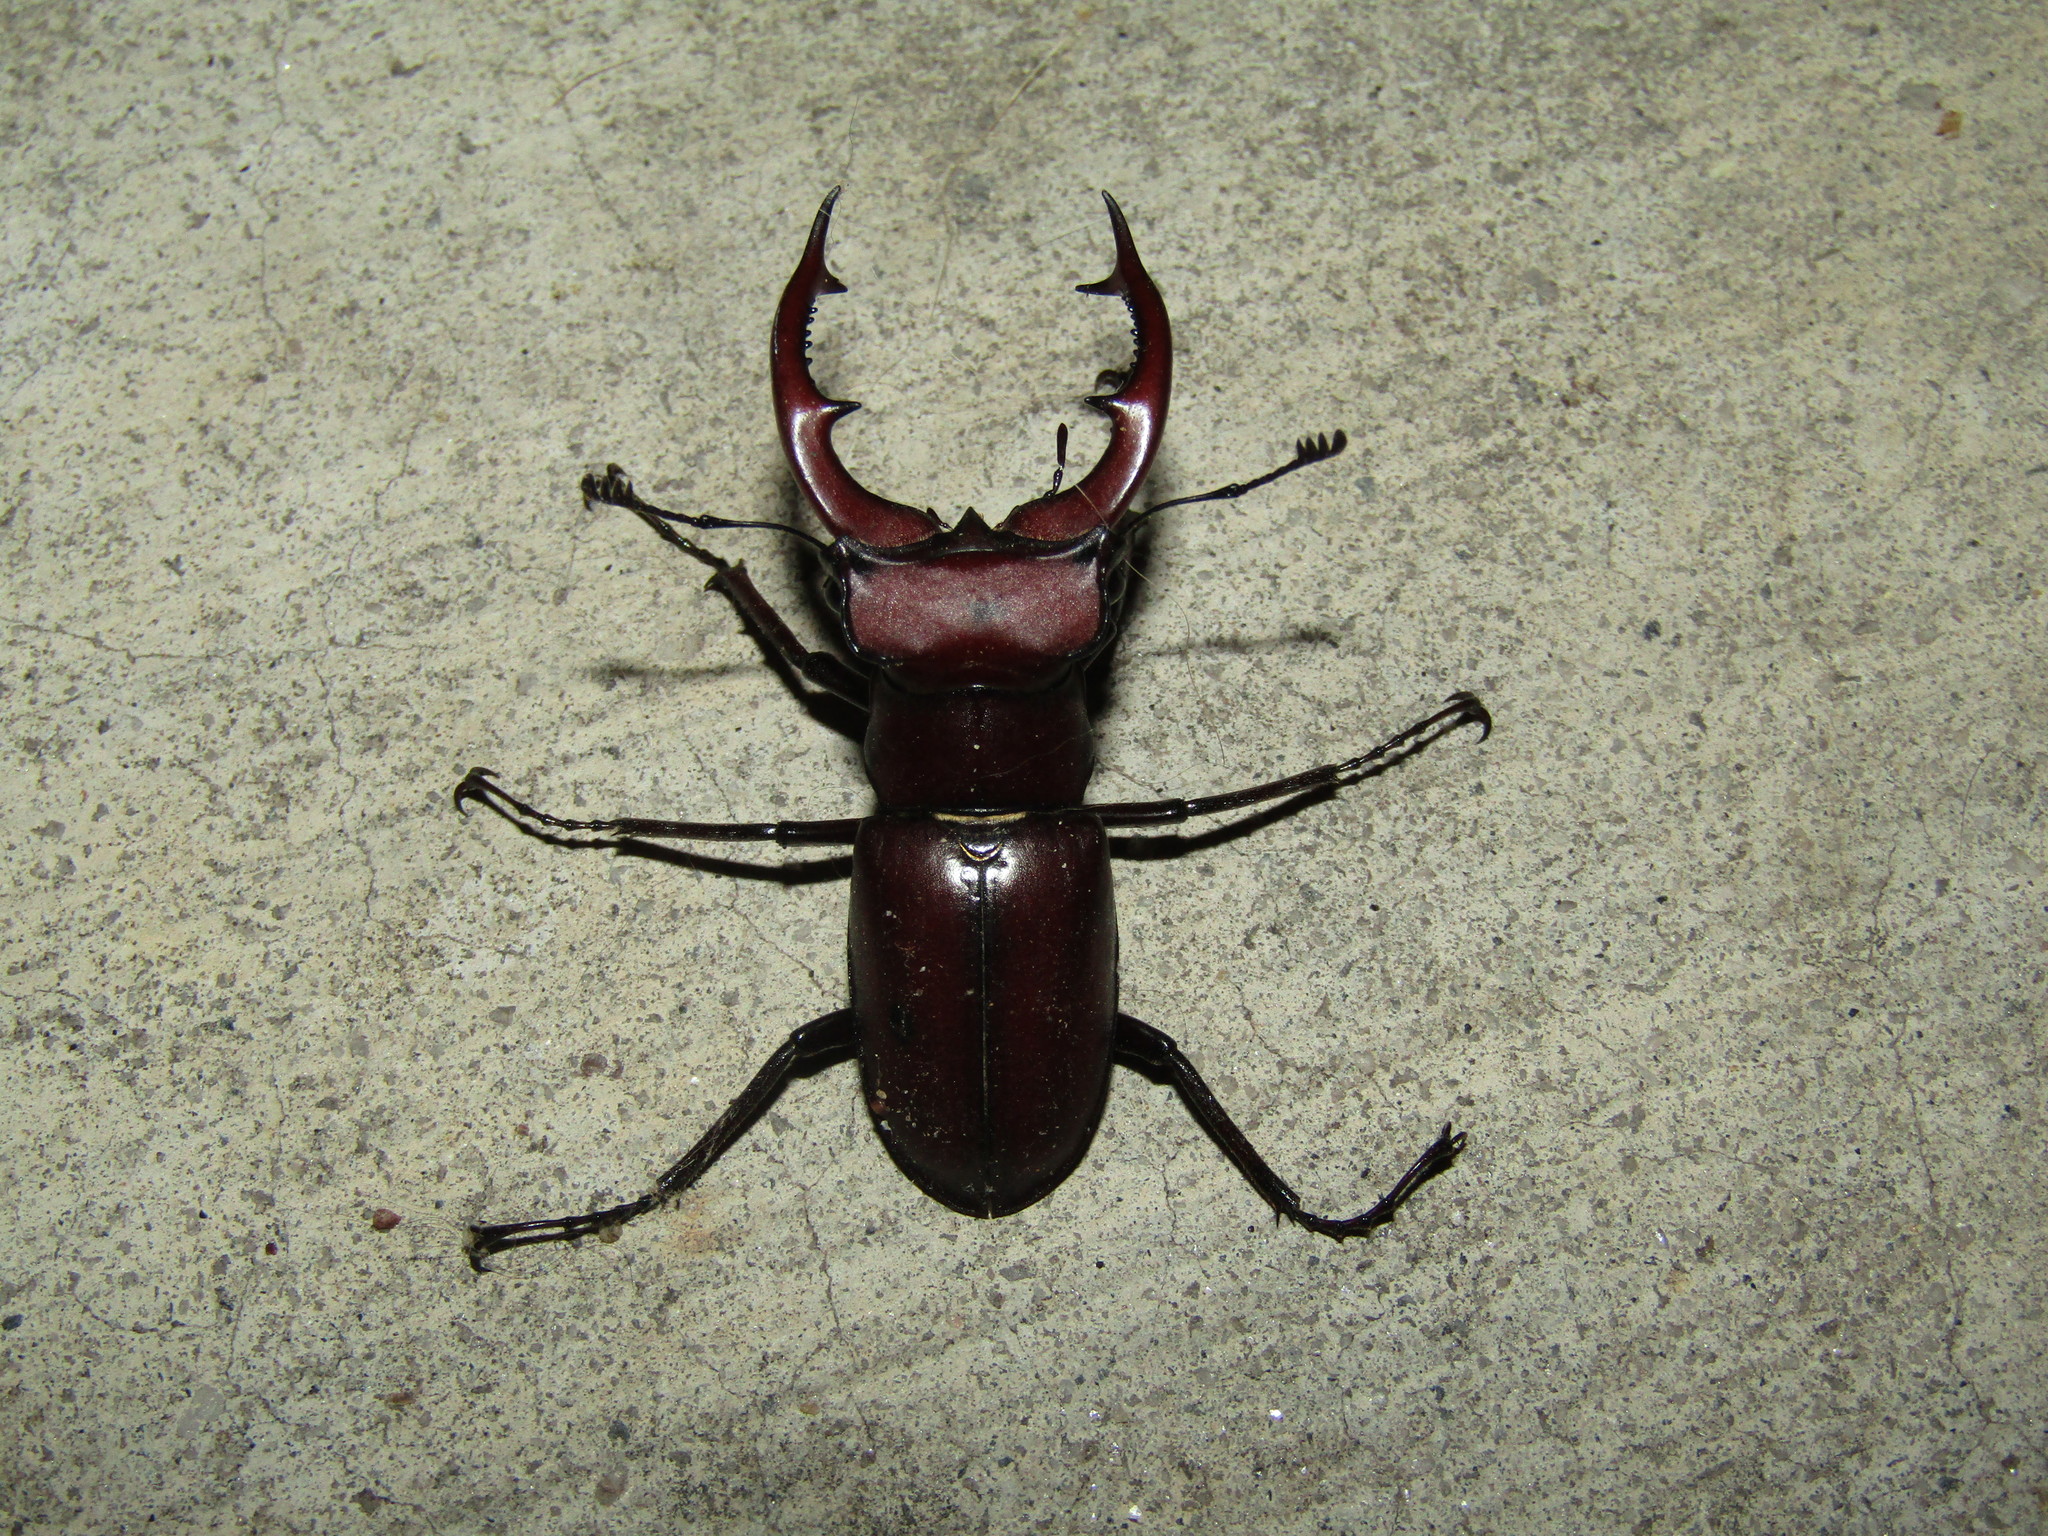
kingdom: Animalia
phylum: Arthropoda
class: Insecta
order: Coleoptera
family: Lucanidae
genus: Lucanus
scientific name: Lucanus elaphus
